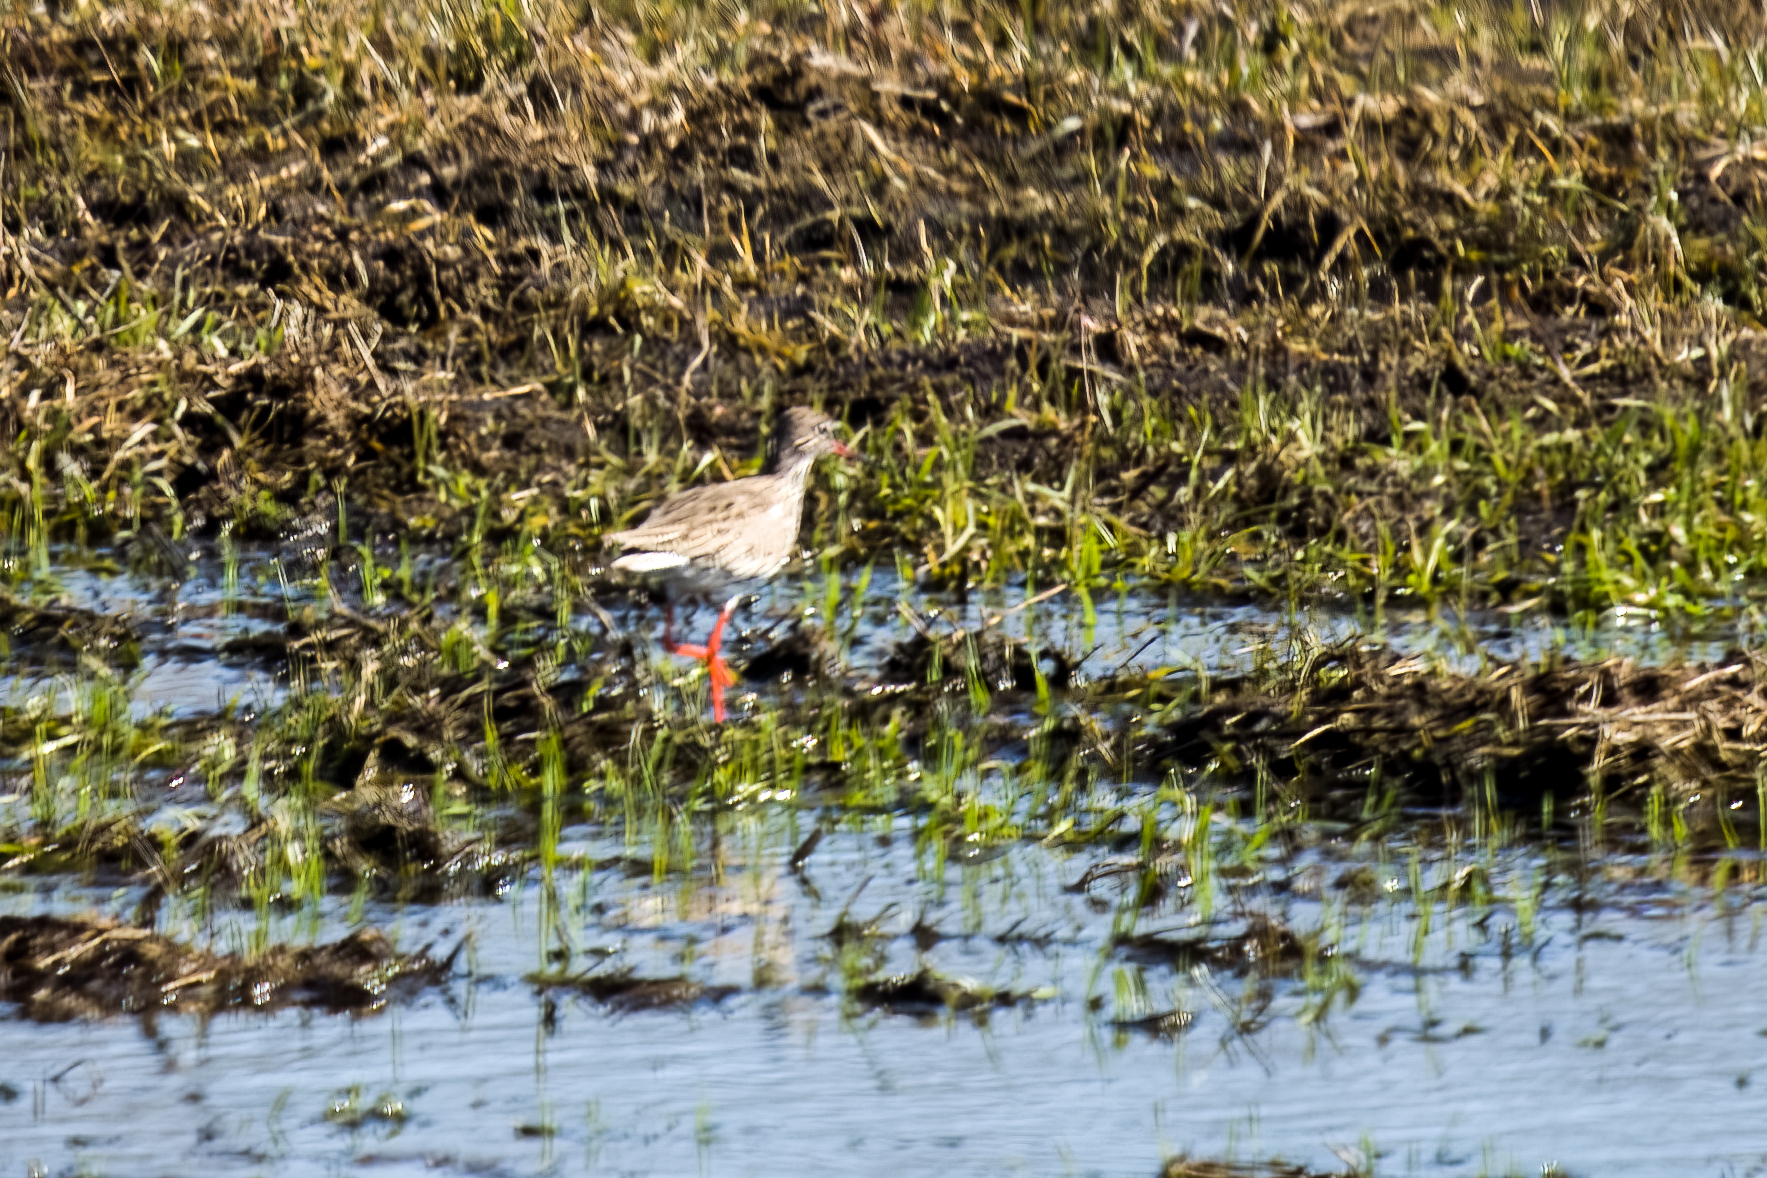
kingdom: Animalia
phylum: Chordata
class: Aves
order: Charadriiformes
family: Scolopacidae
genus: Tringa
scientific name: Tringa totanus
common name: Common redshank
